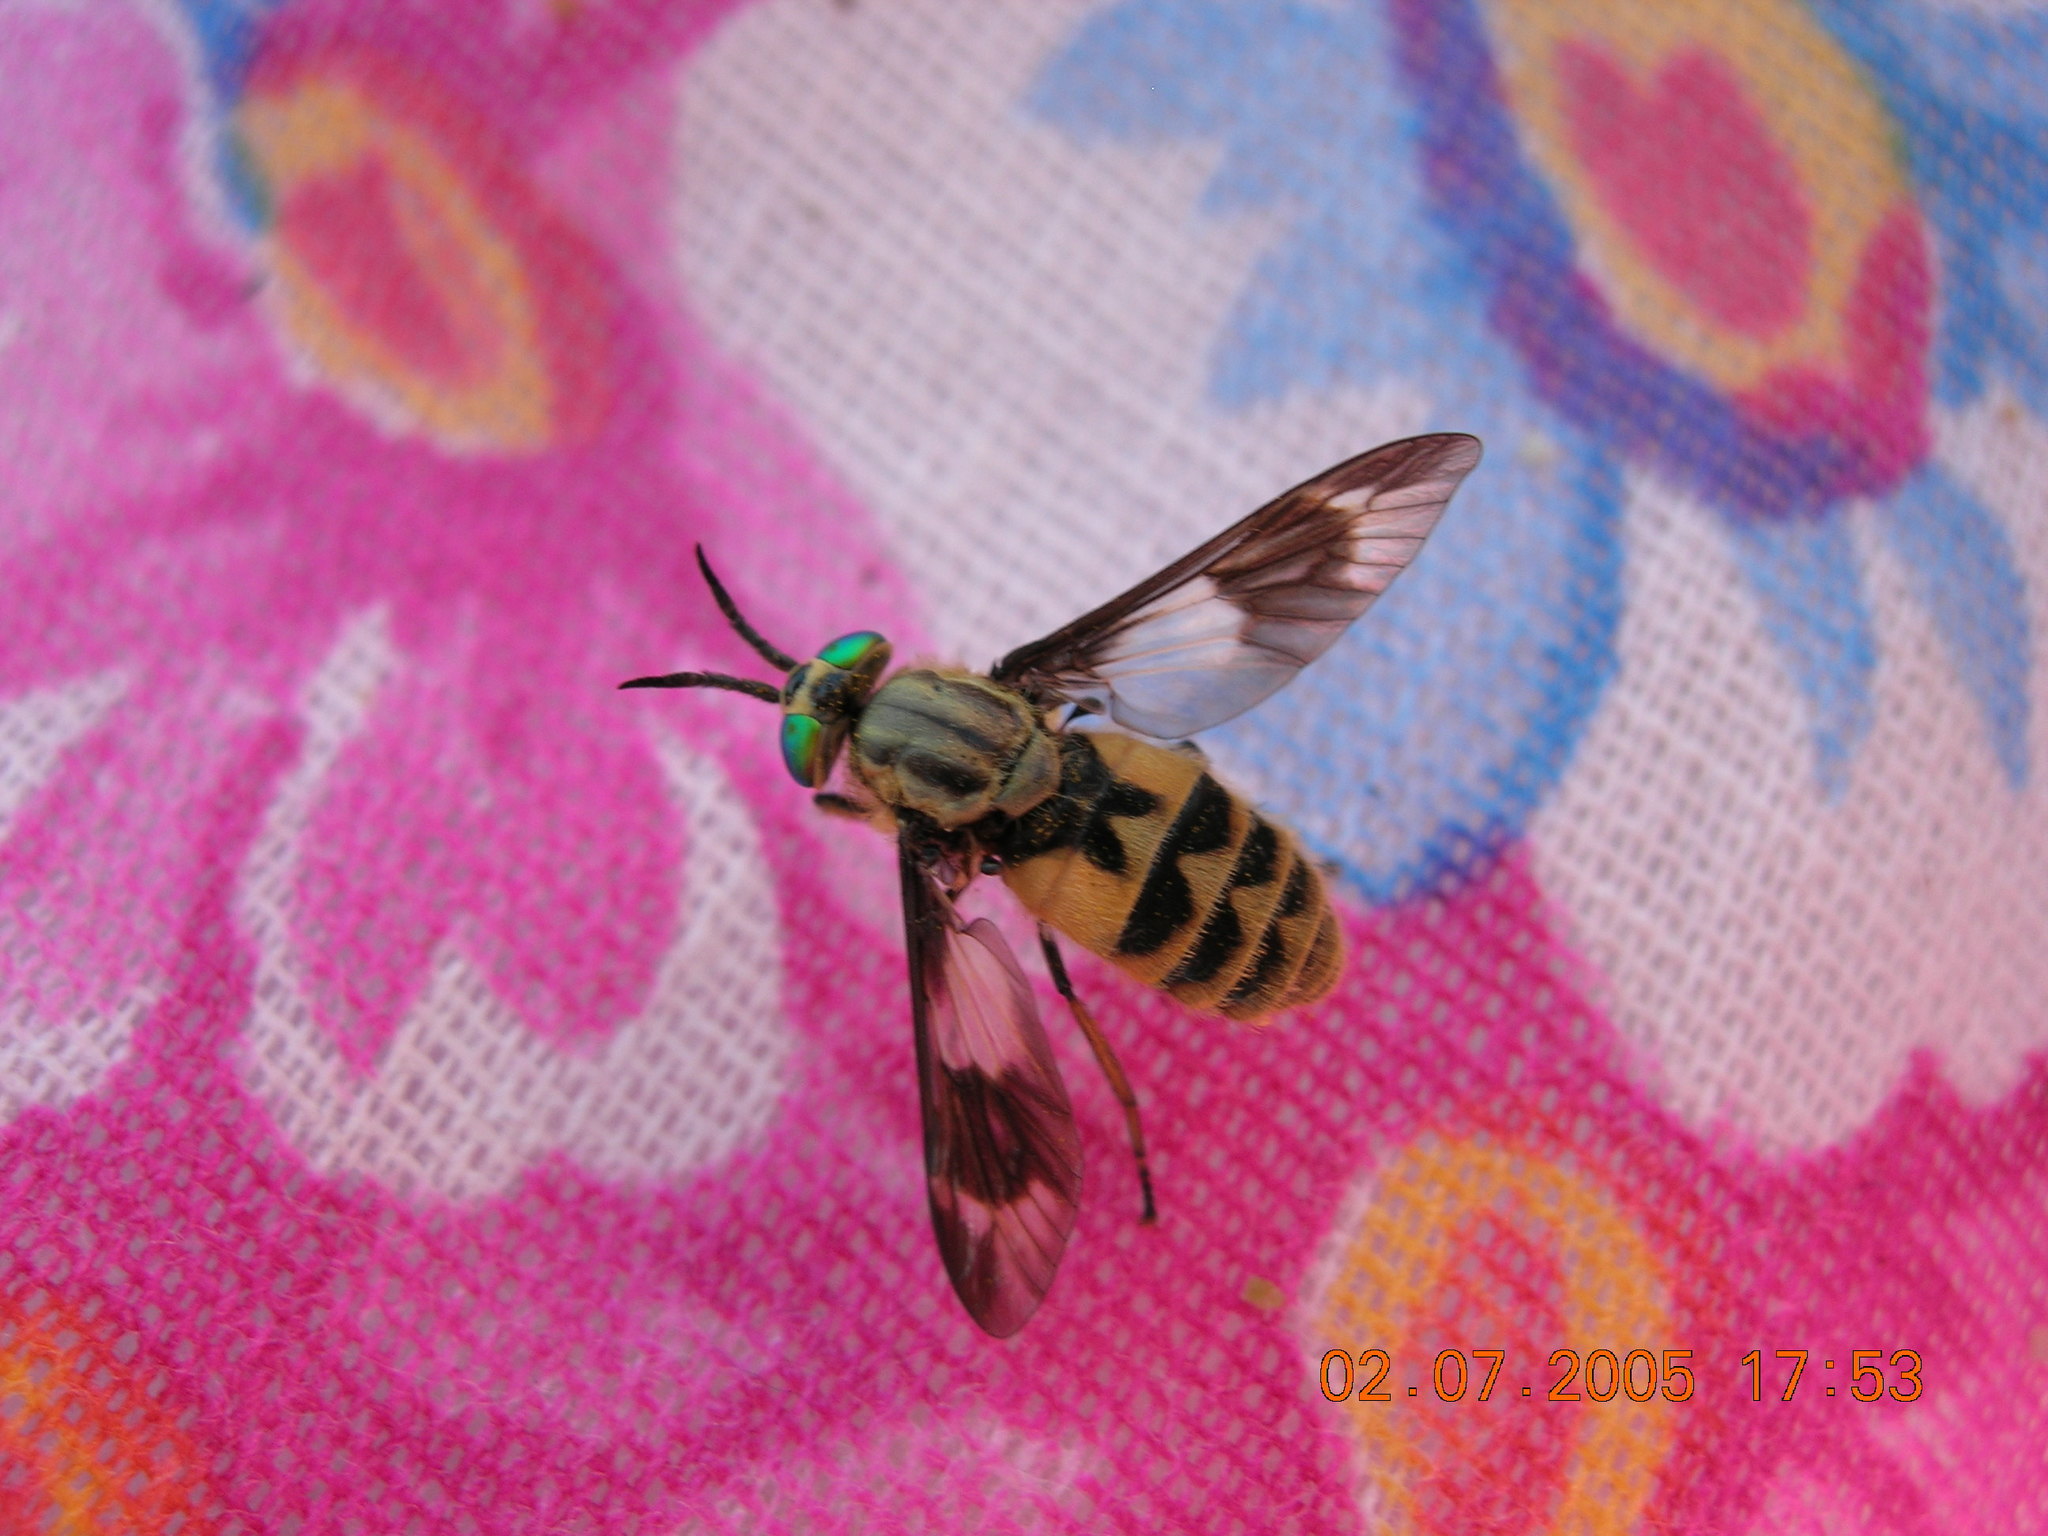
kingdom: Animalia
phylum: Arthropoda
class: Insecta
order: Diptera
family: Tabanidae
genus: Chrysops
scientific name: Chrysops relictus
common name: Twin-lobed deerfly
